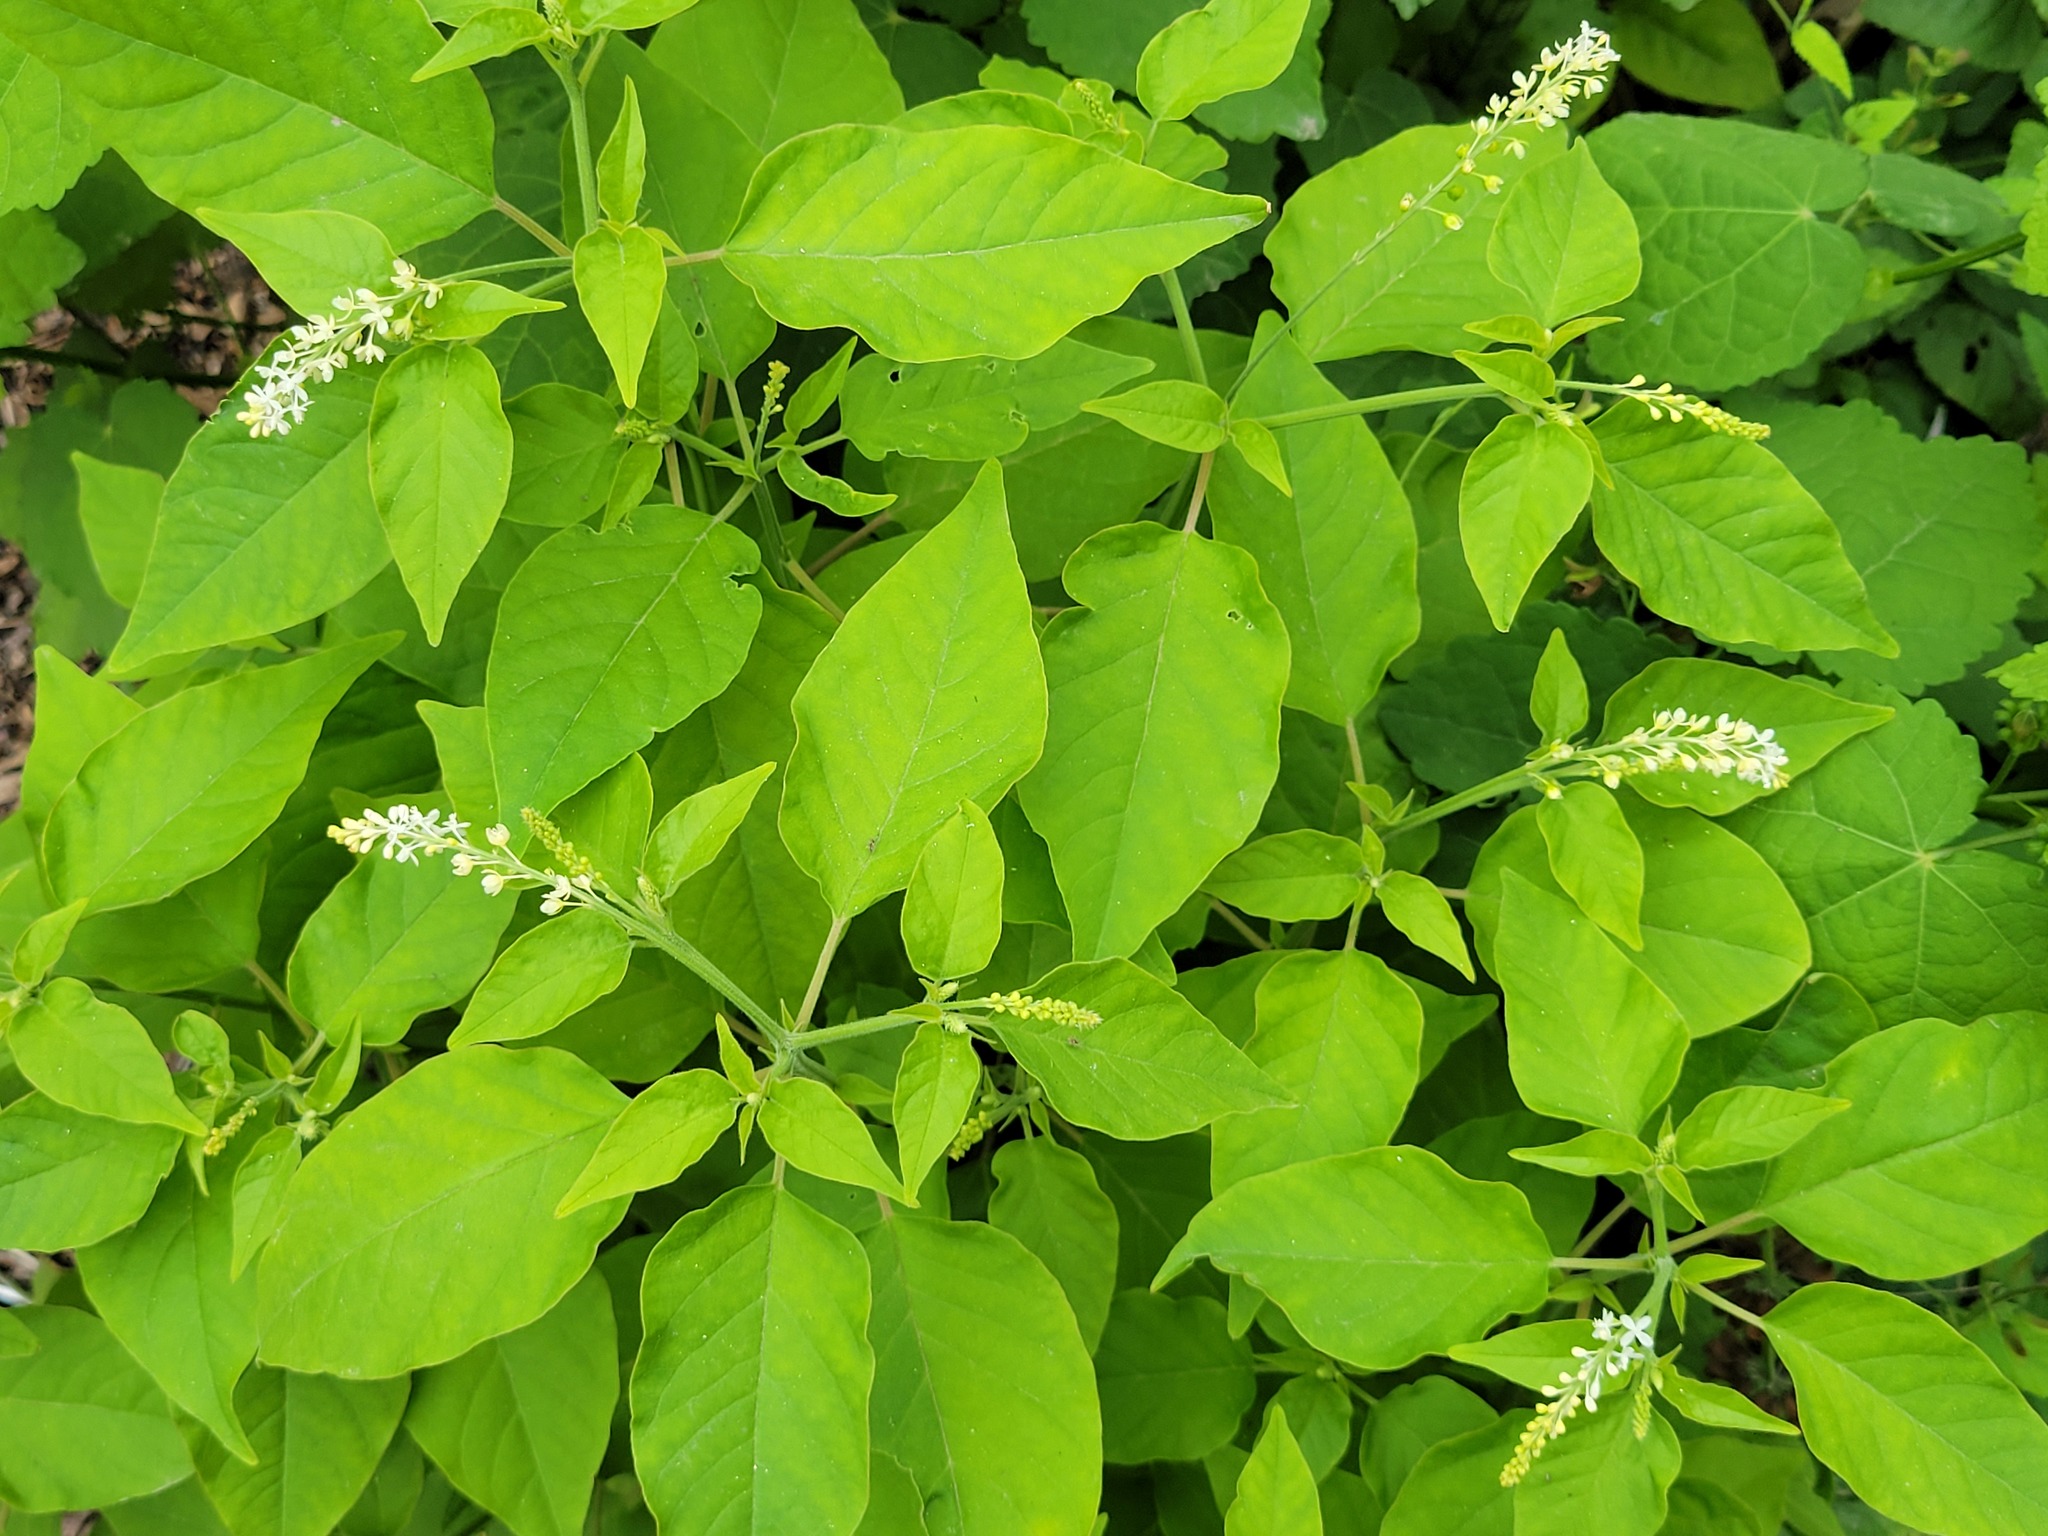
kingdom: Plantae
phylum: Tracheophyta
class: Magnoliopsida
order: Caryophyllales
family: Phytolaccaceae
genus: Rivina
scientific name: Rivina humilis
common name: Rougeplant
